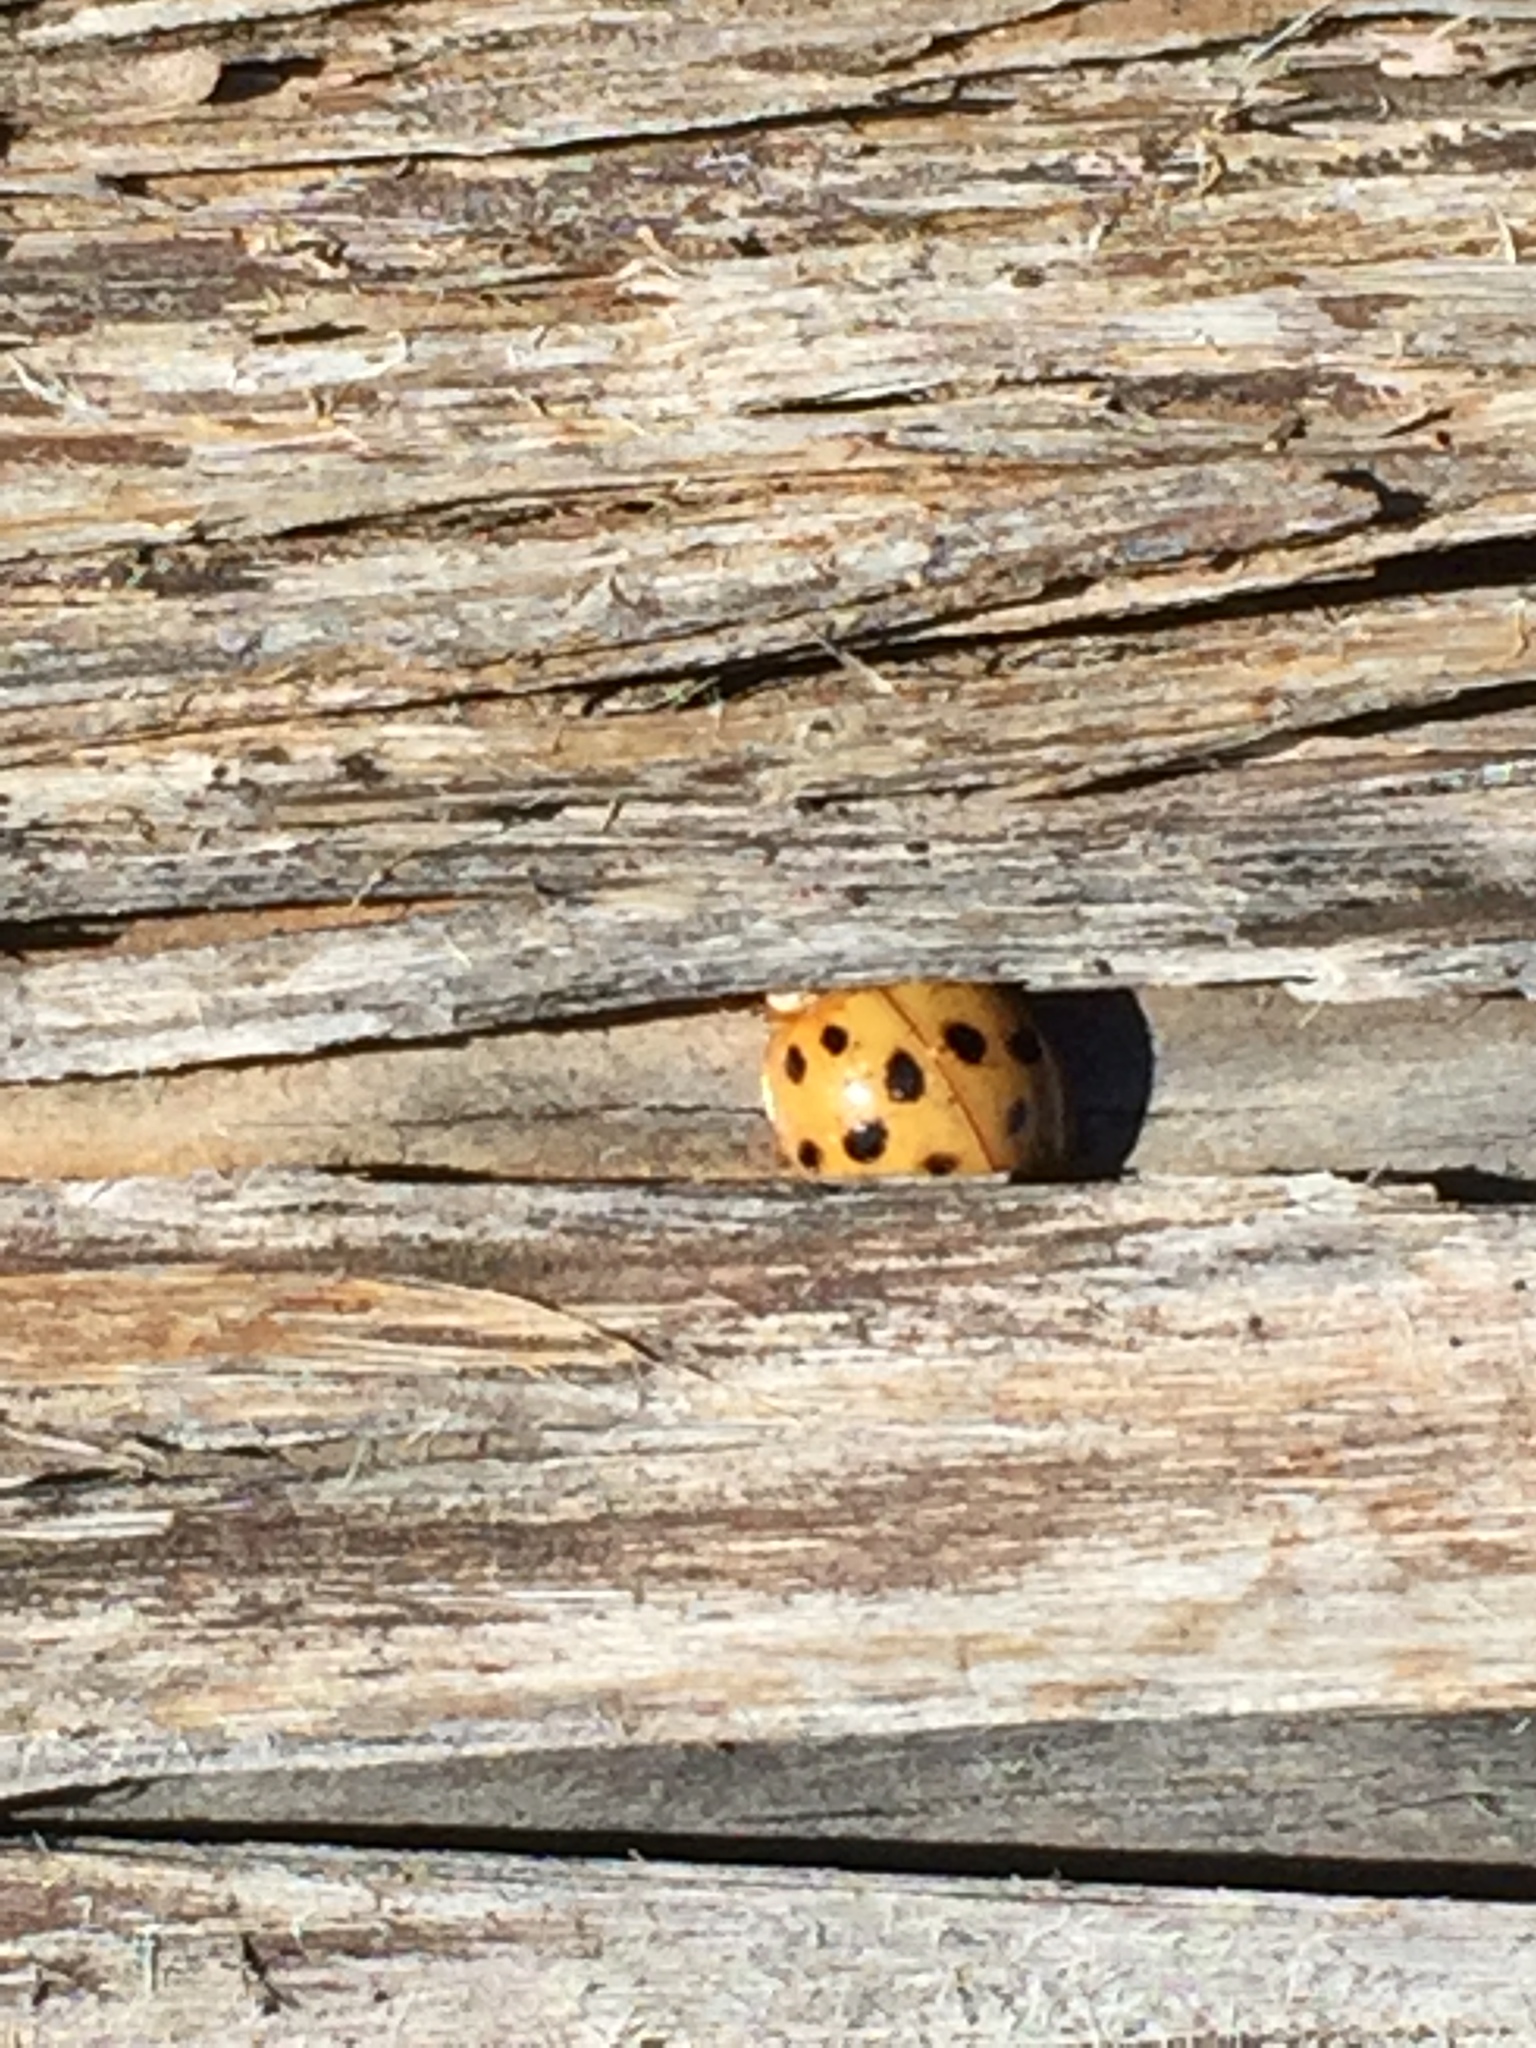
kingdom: Animalia
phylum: Arthropoda
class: Insecta
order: Coleoptera
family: Coccinellidae
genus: Harmonia
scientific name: Harmonia axyridis
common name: Harlequin ladybird
